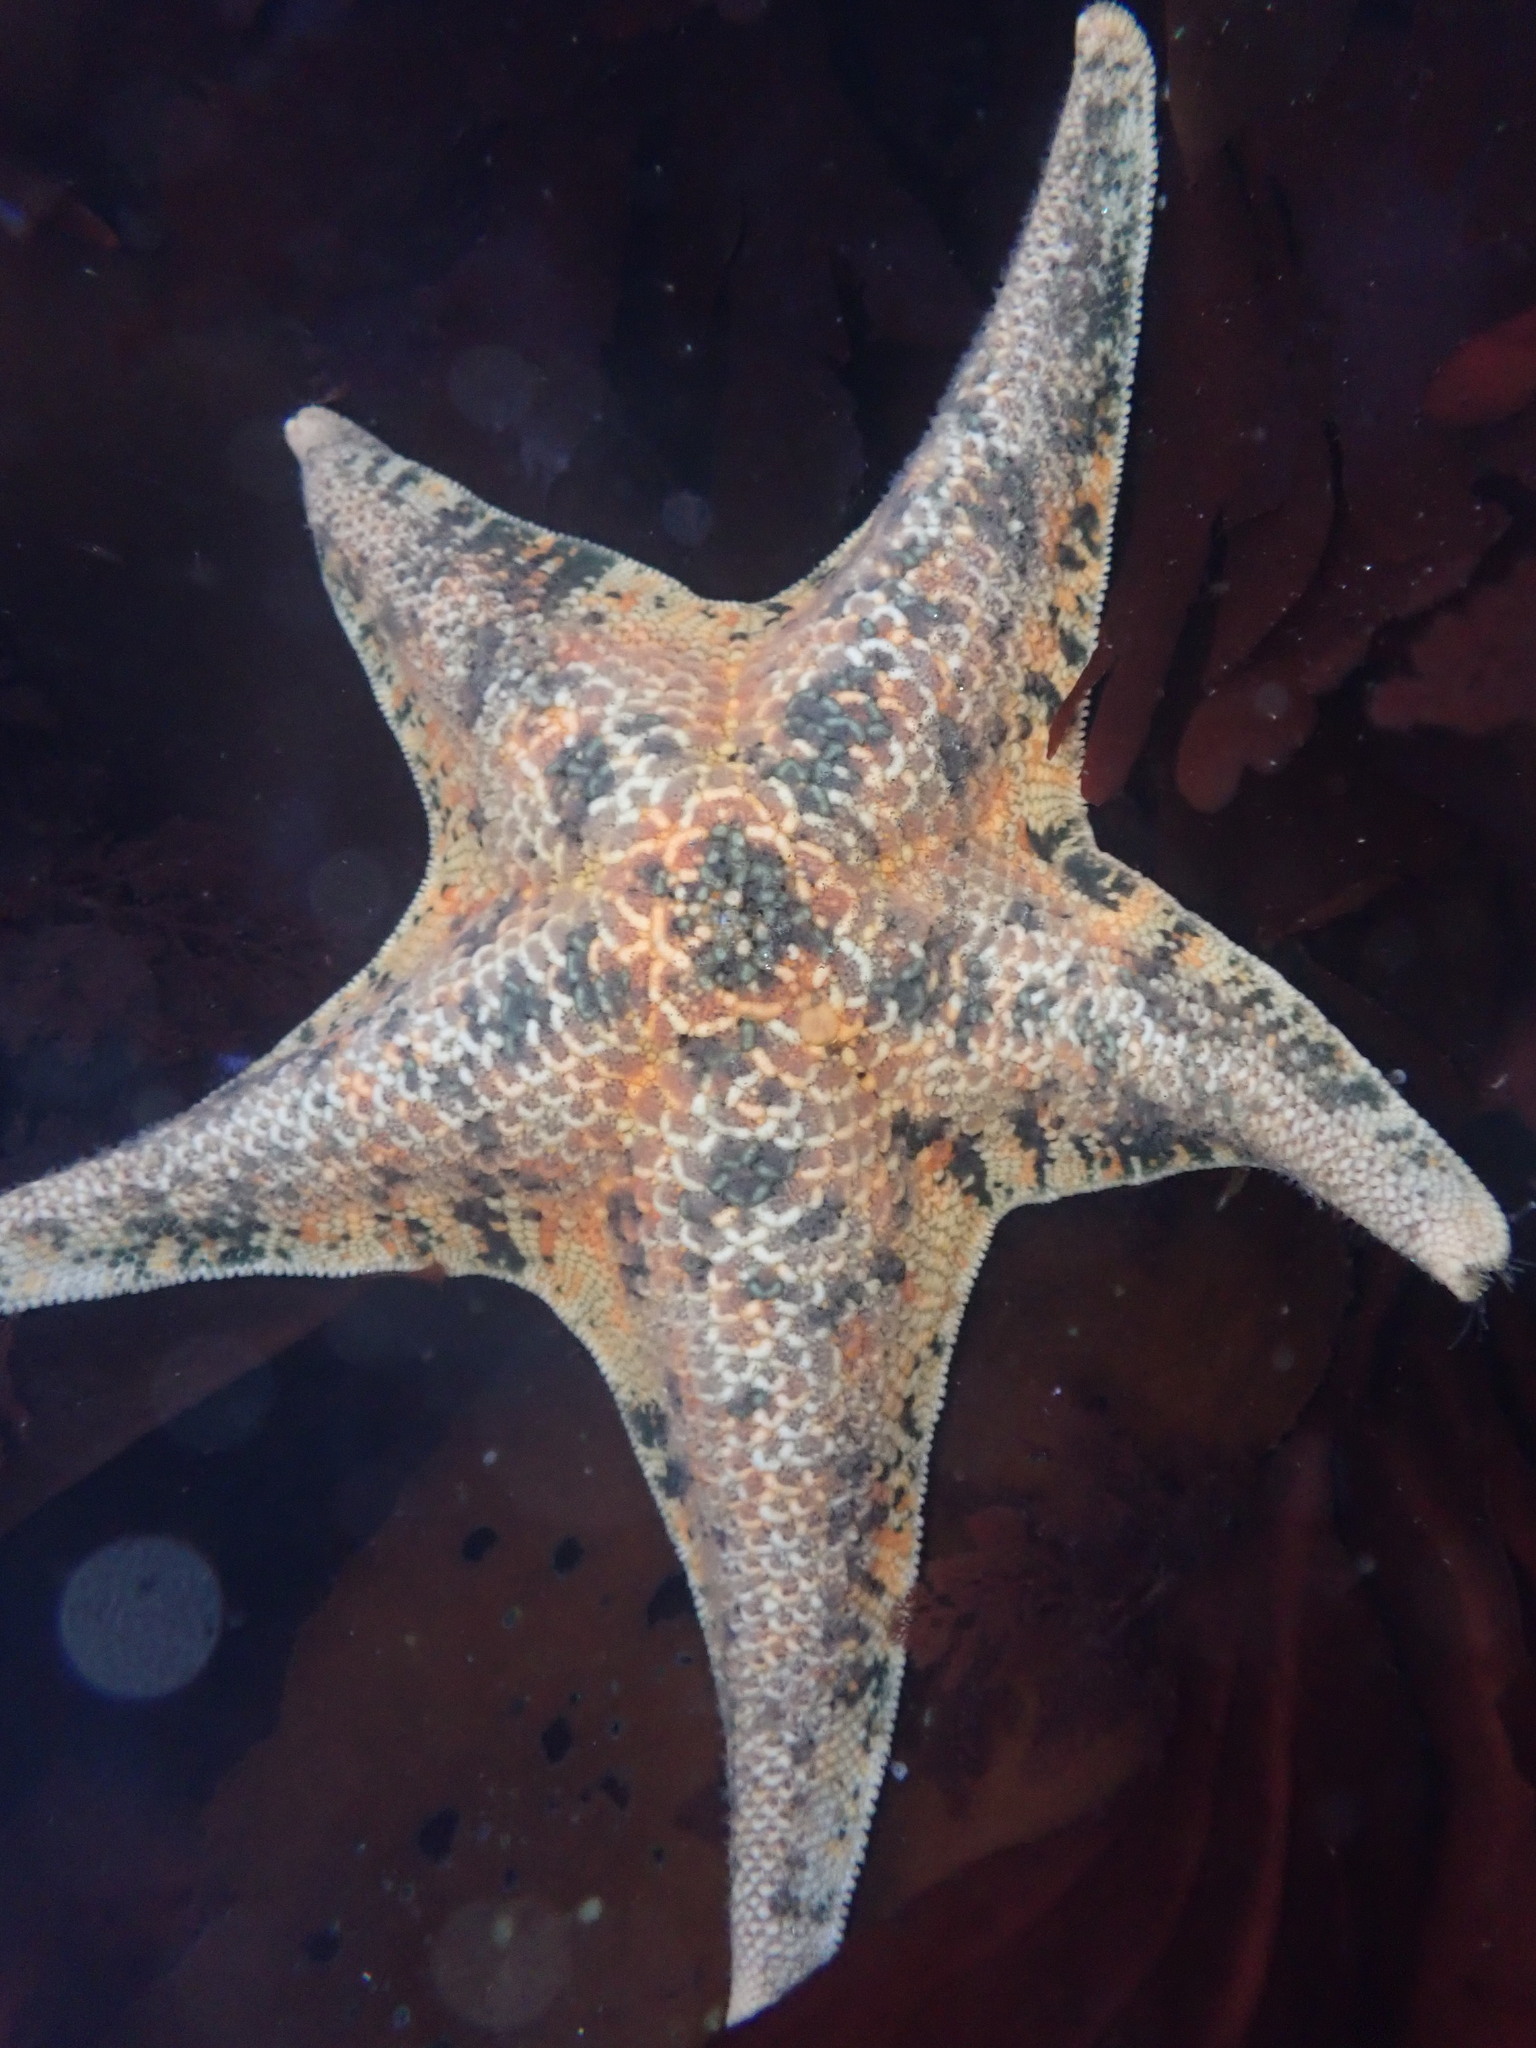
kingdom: Animalia
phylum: Echinodermata
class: Asteroidea
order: Valvatida
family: Asterinidae
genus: Patiria
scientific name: Patiria miniata
